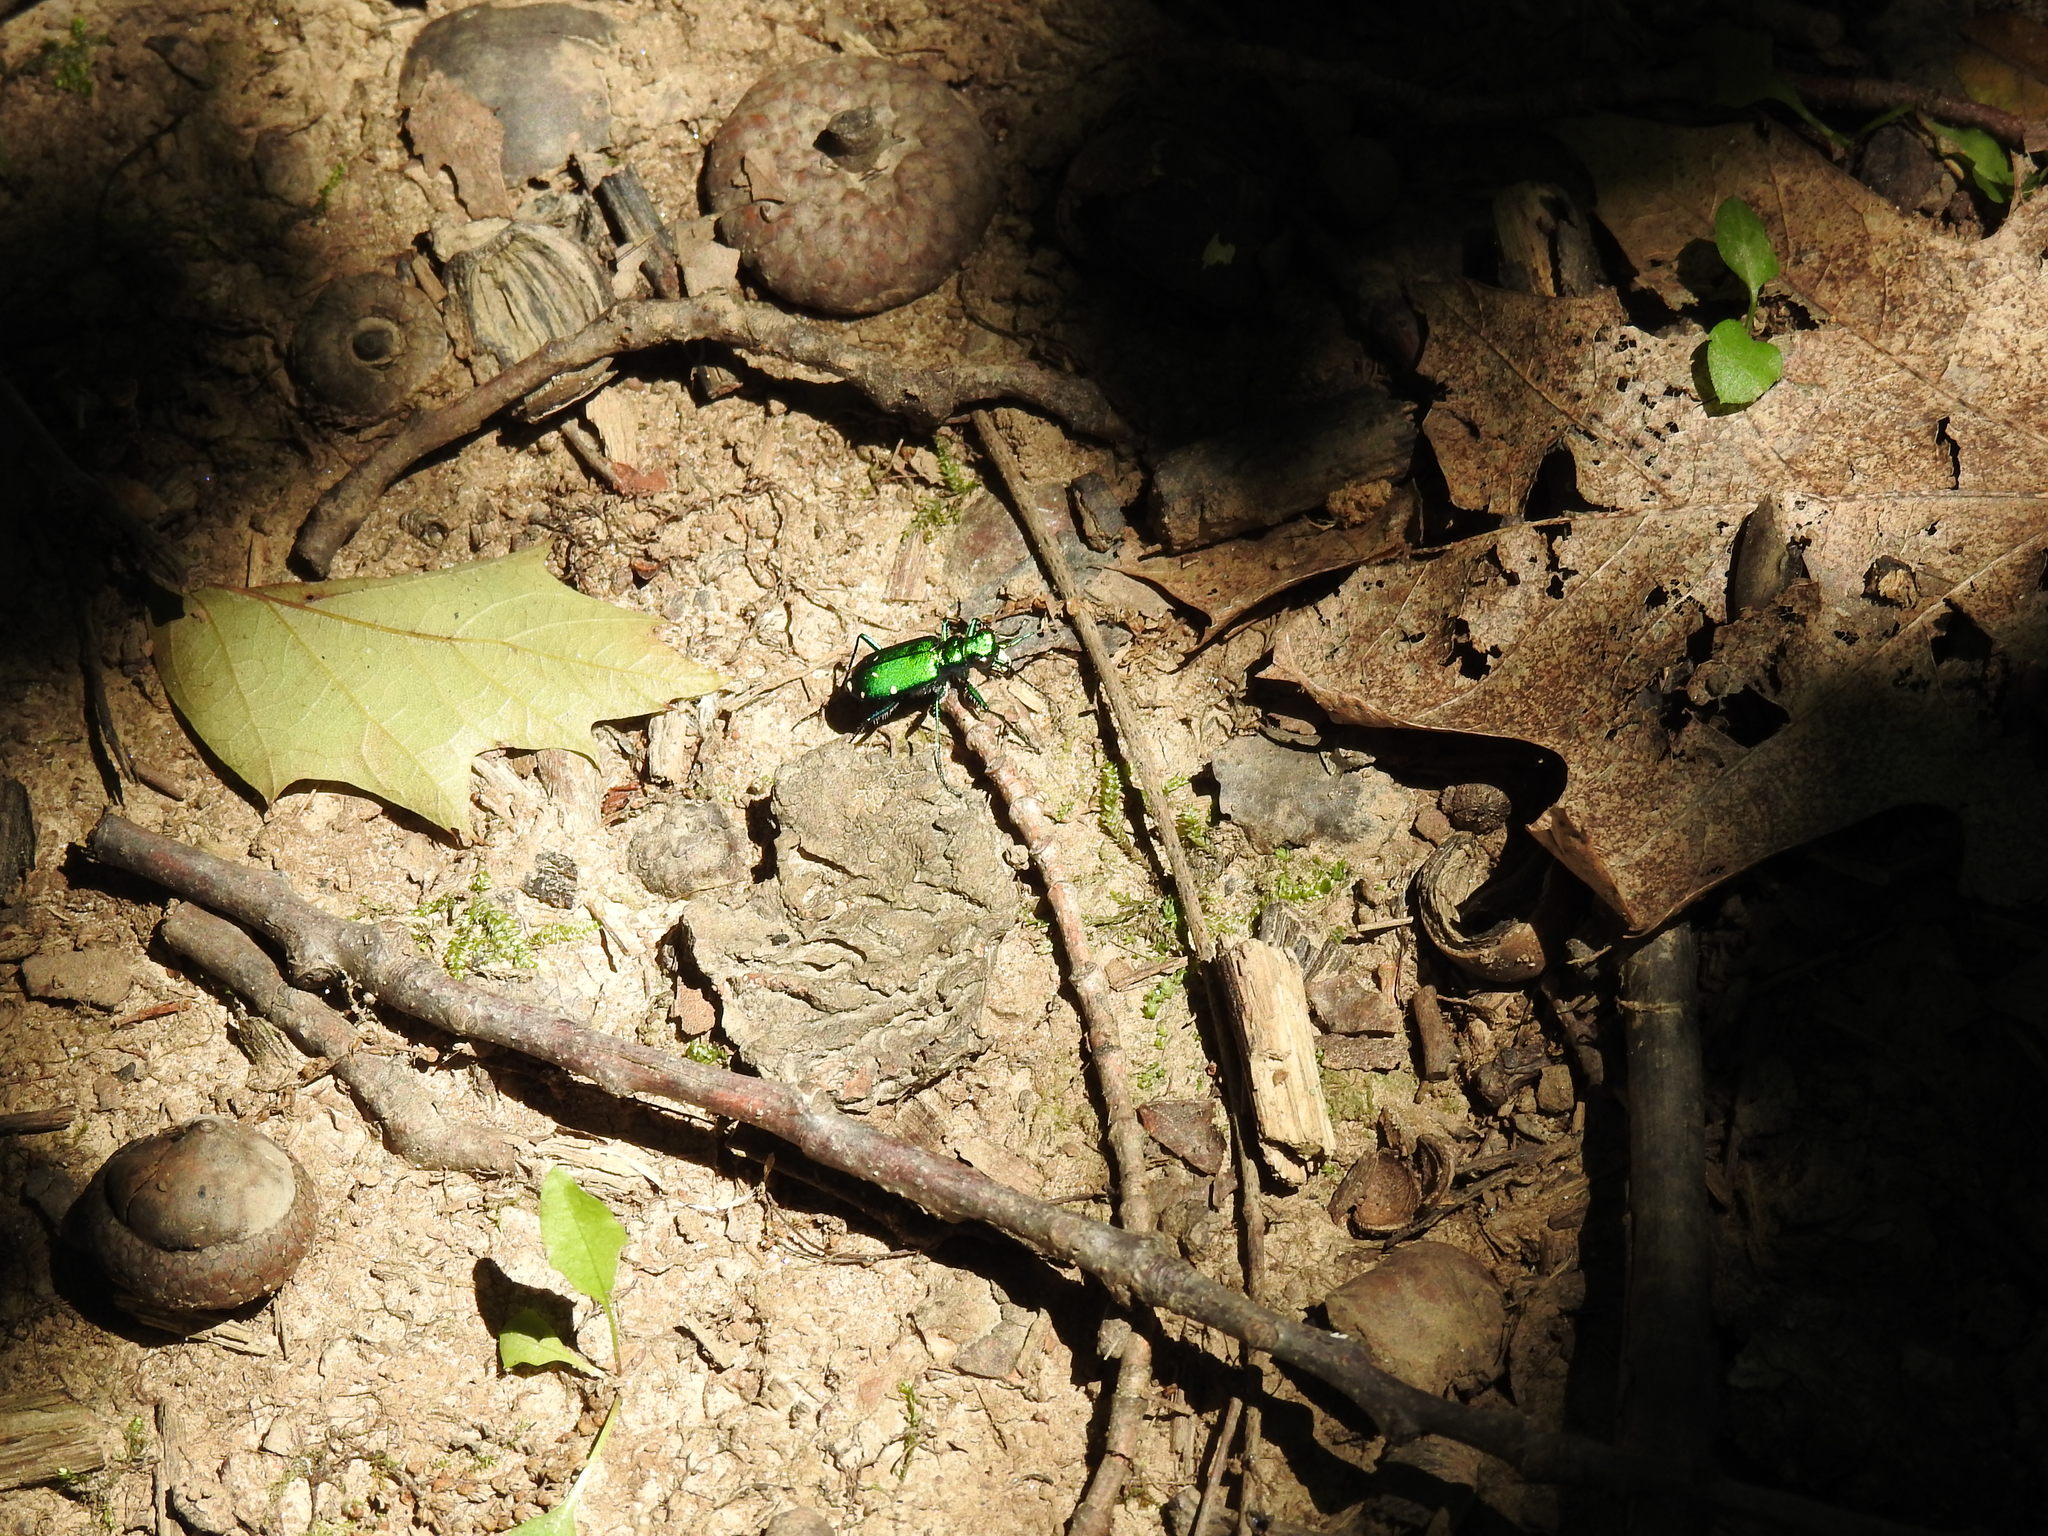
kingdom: Animalia
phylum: Arthropoda
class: Insecta
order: Coleoptera
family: Carabidae
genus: Cicindela
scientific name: Cicindela sexguttata
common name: Six-spotted tiger beetle
